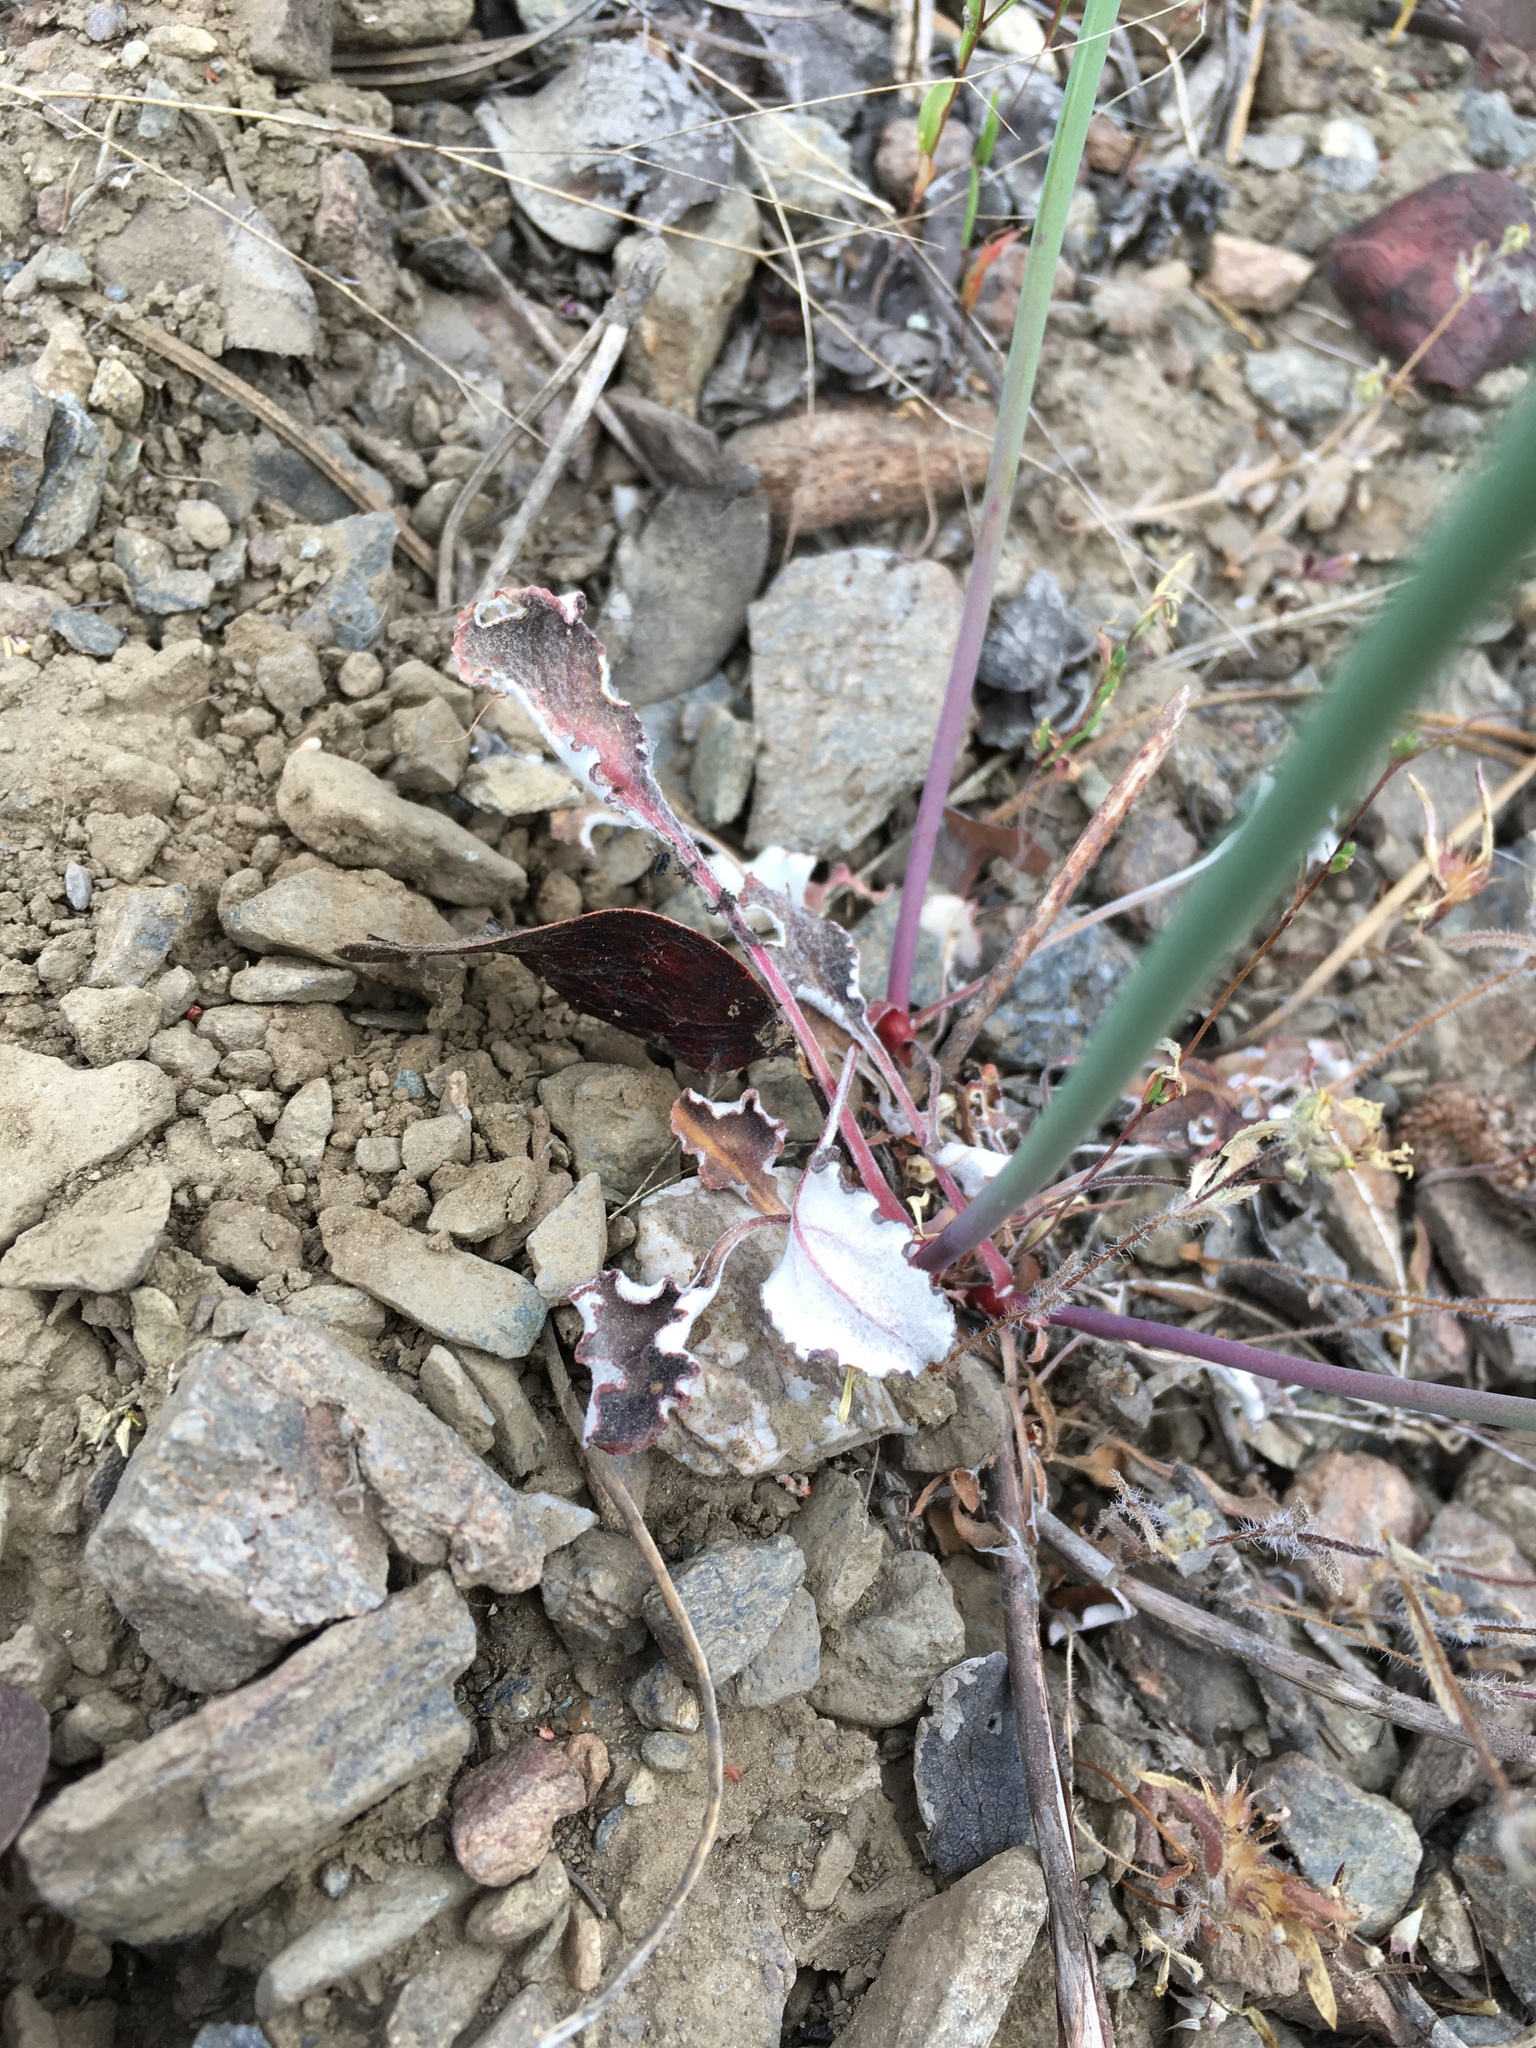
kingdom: Plantae
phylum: Tracheophyta
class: Magnoliopsida
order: Caryophyllales
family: Polygonaceae
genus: Eriogonum
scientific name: Eriogonum nudum
